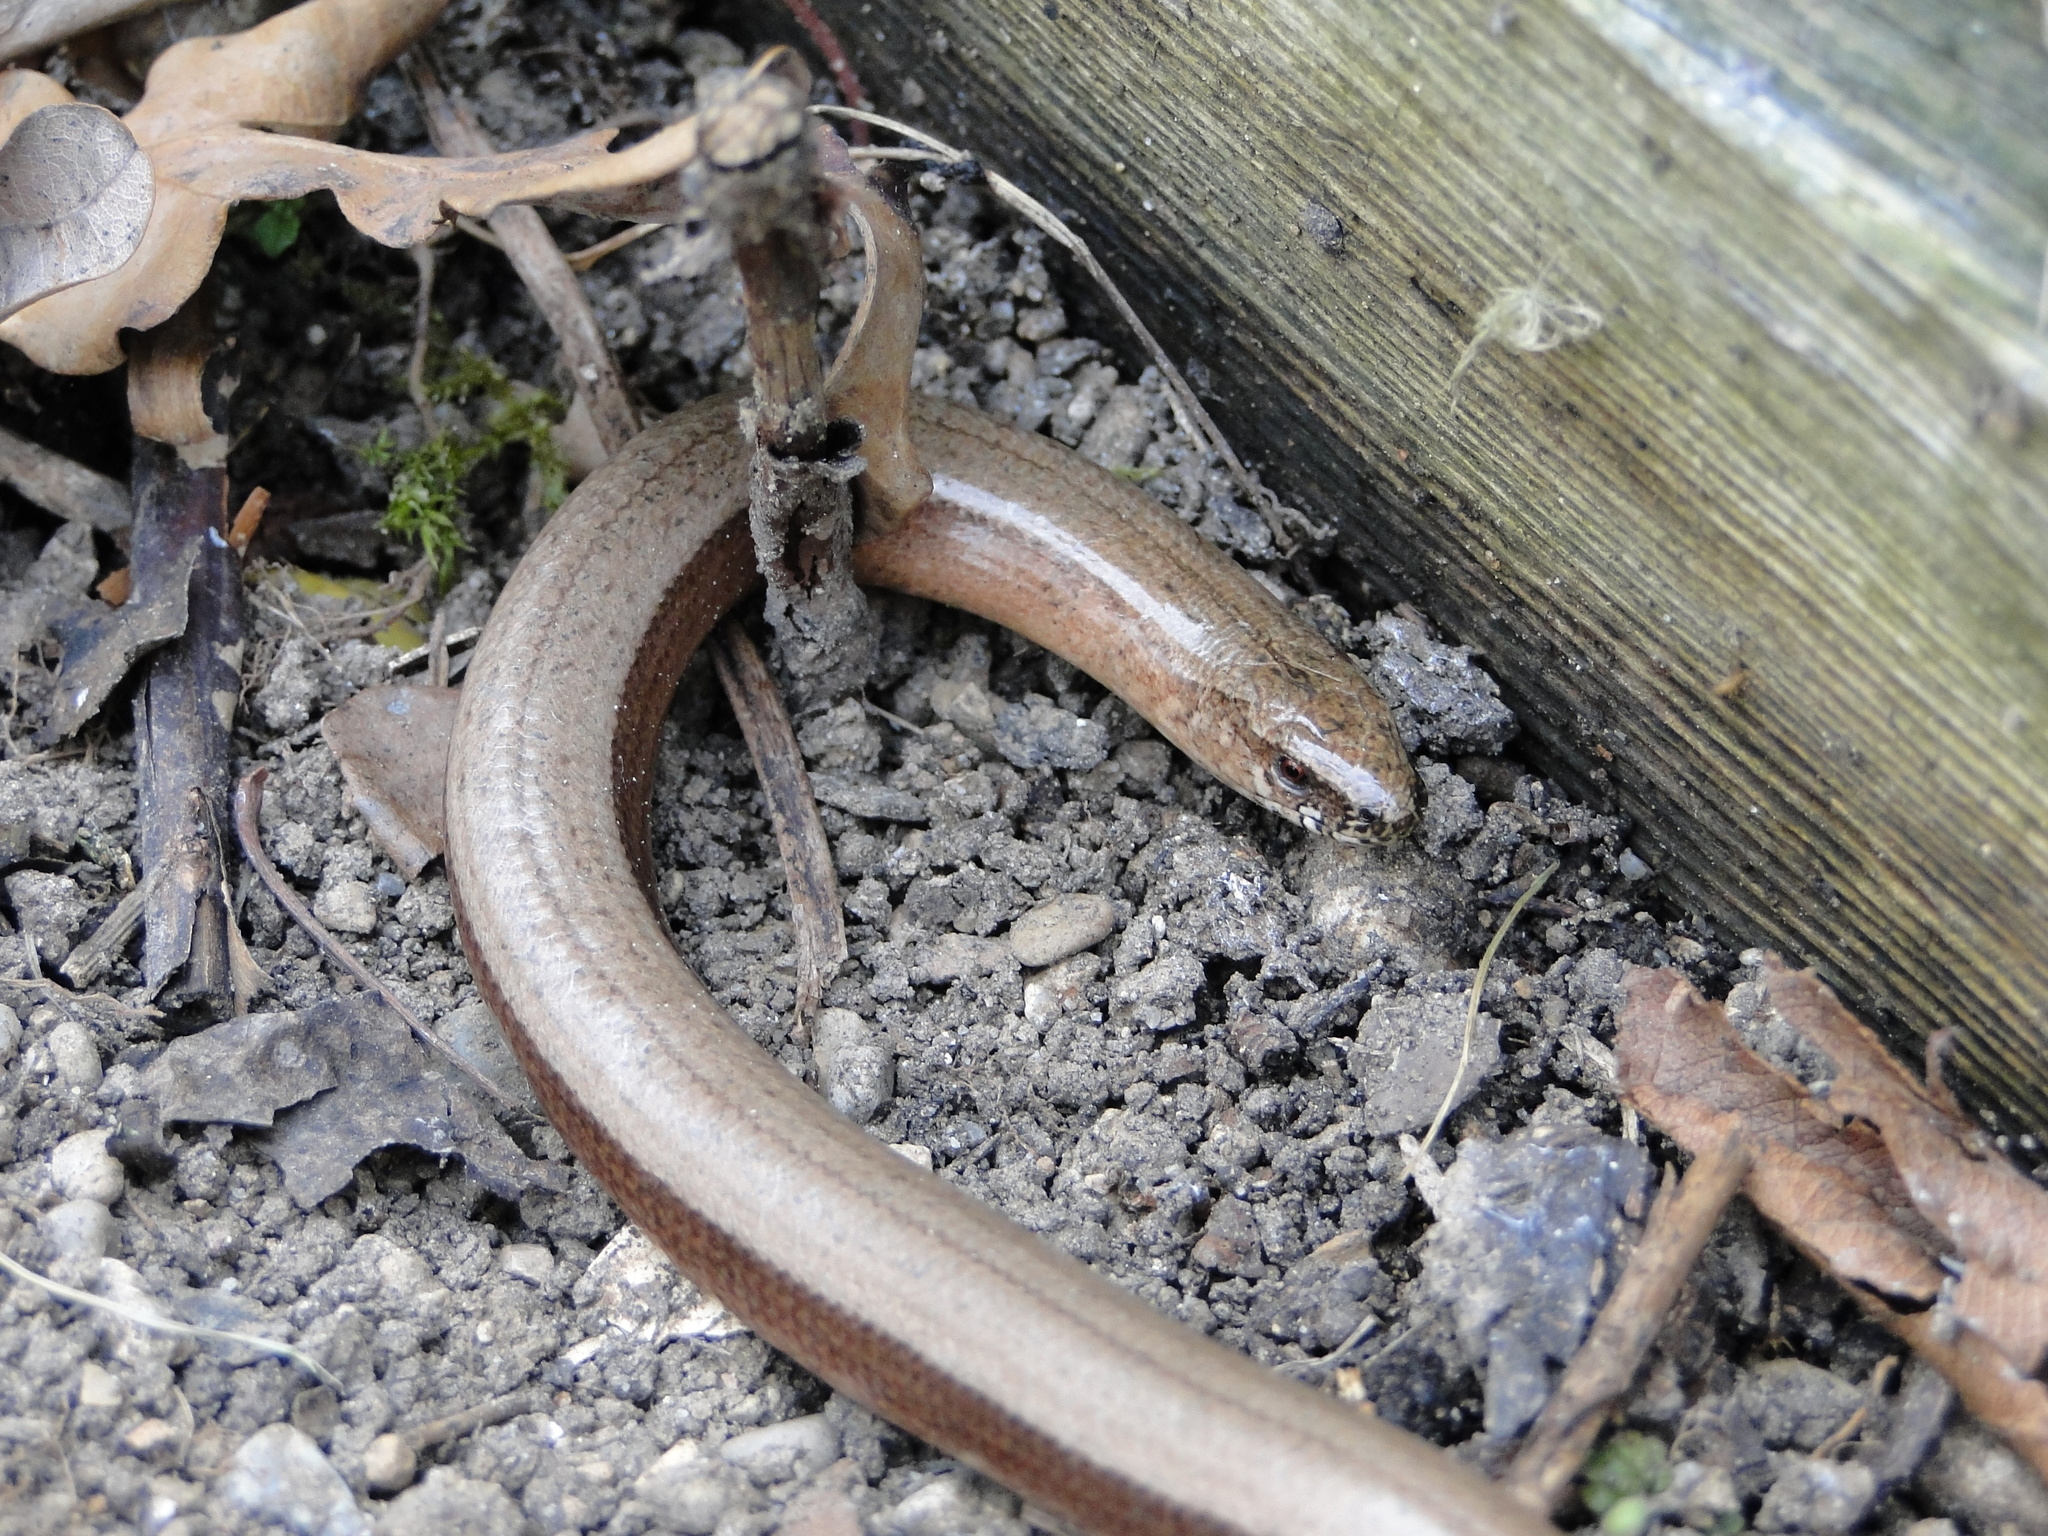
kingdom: Animalia
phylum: Chordata
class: Squamata
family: Anguidae
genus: Anguis
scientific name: Anguis fragilis
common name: Slow worm
